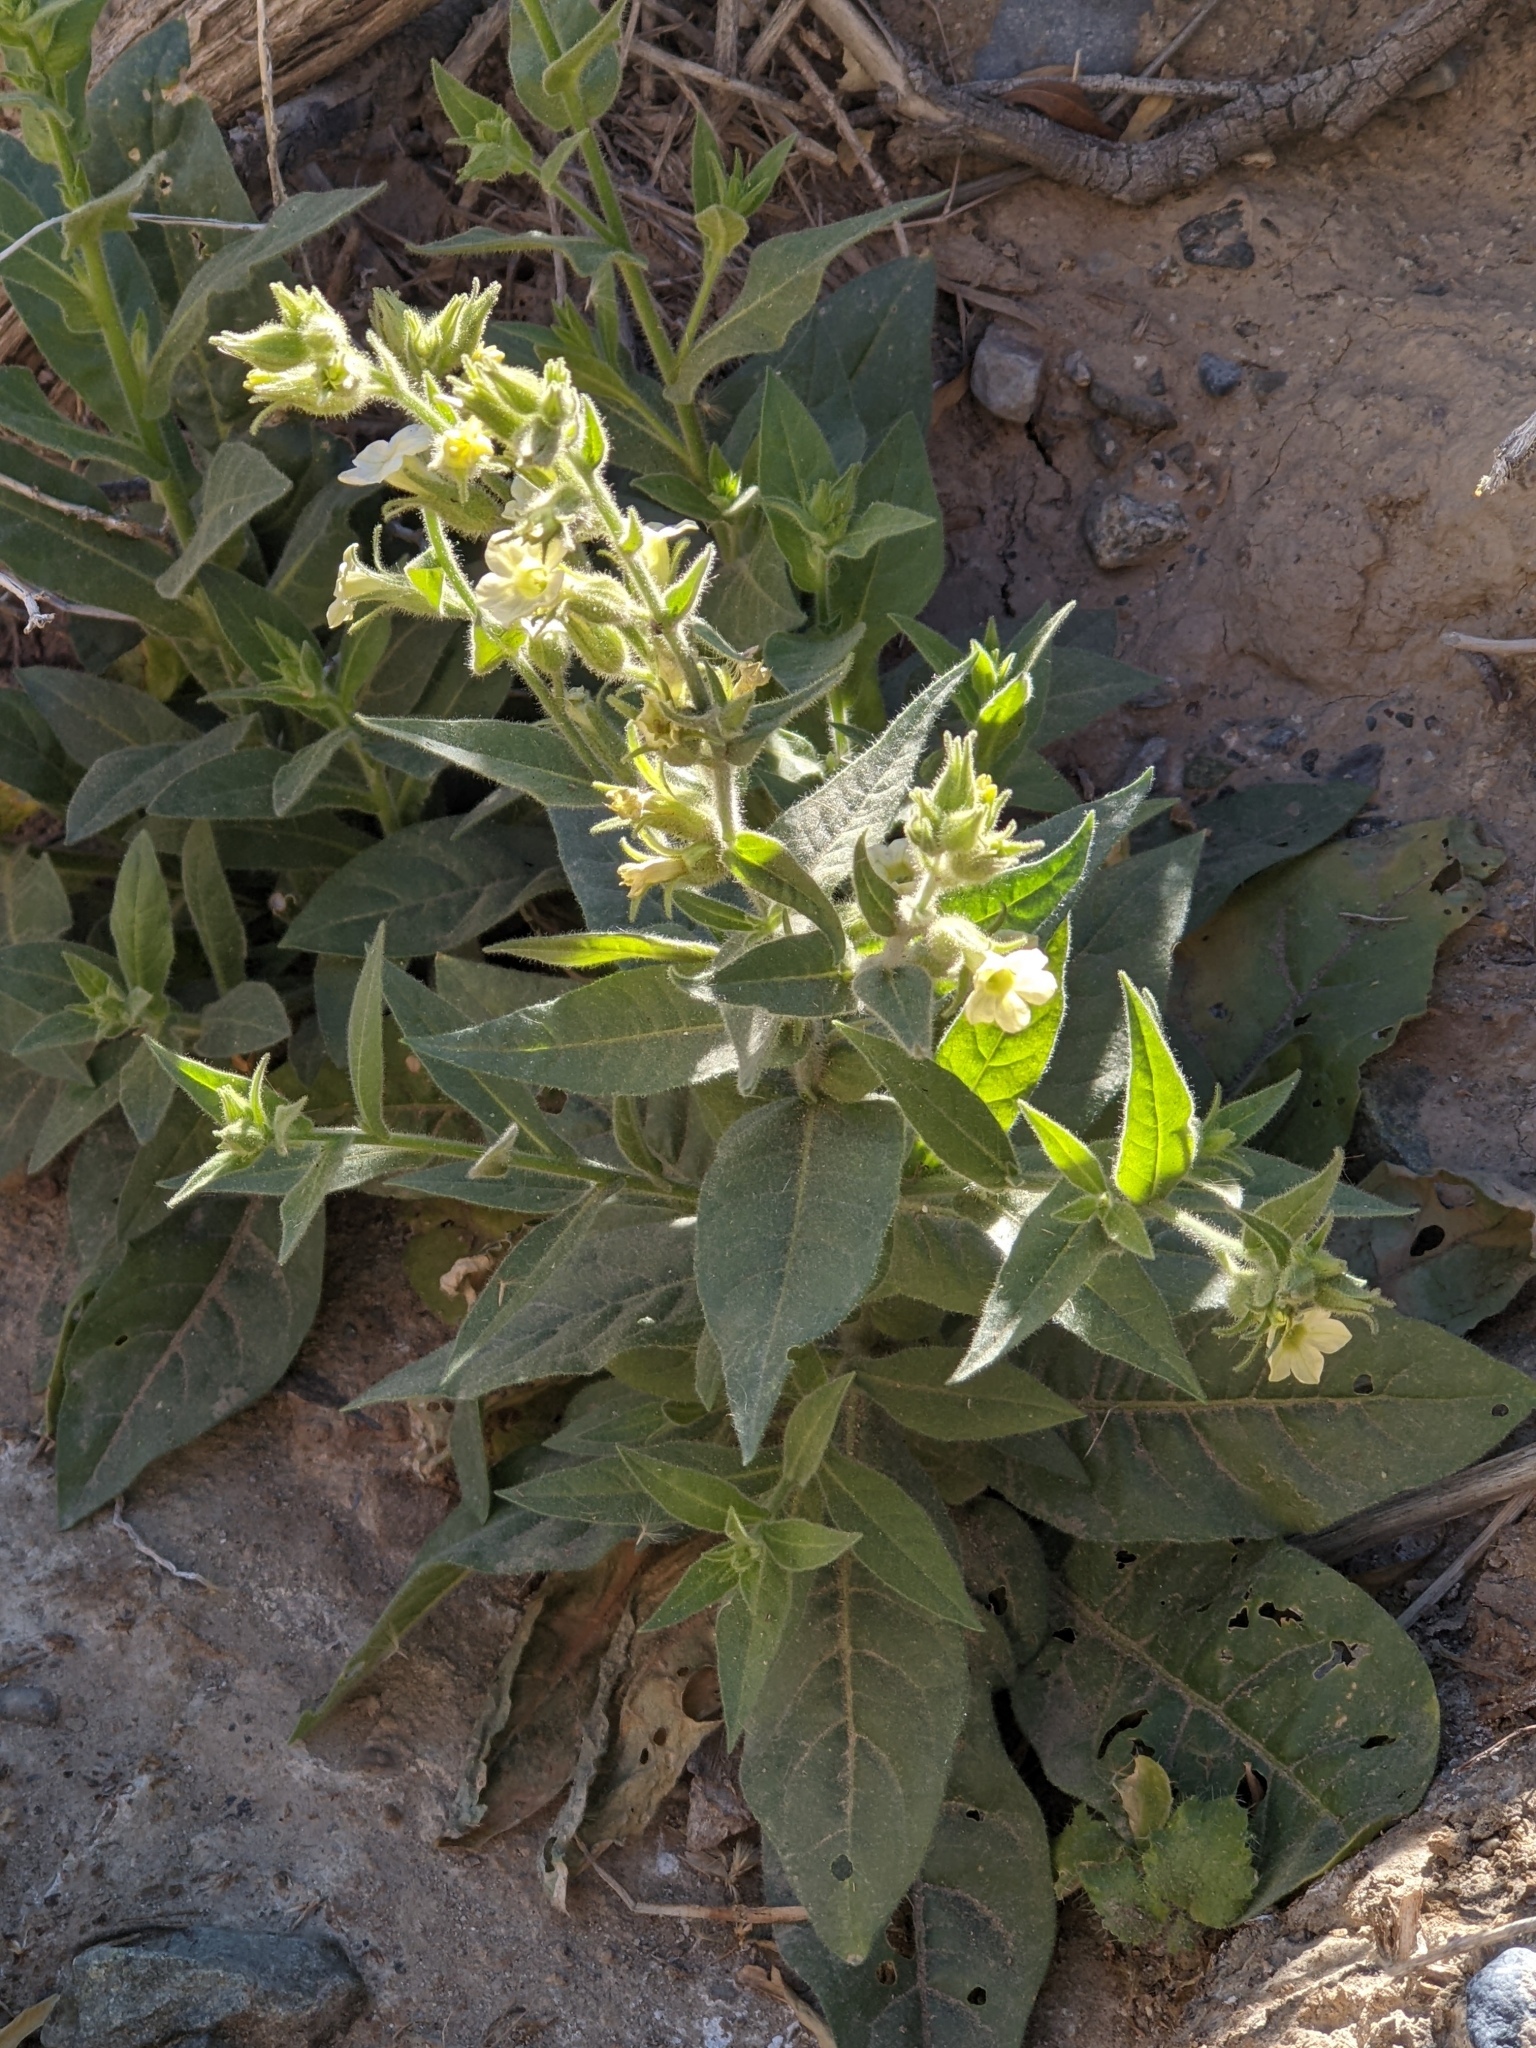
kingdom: Plantae
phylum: Tracheophyta
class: Magnoliopsida
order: Solanales
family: Solanaceae
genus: Nicotiana
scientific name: Nicotiana obtusifolia
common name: Desert tobacco
